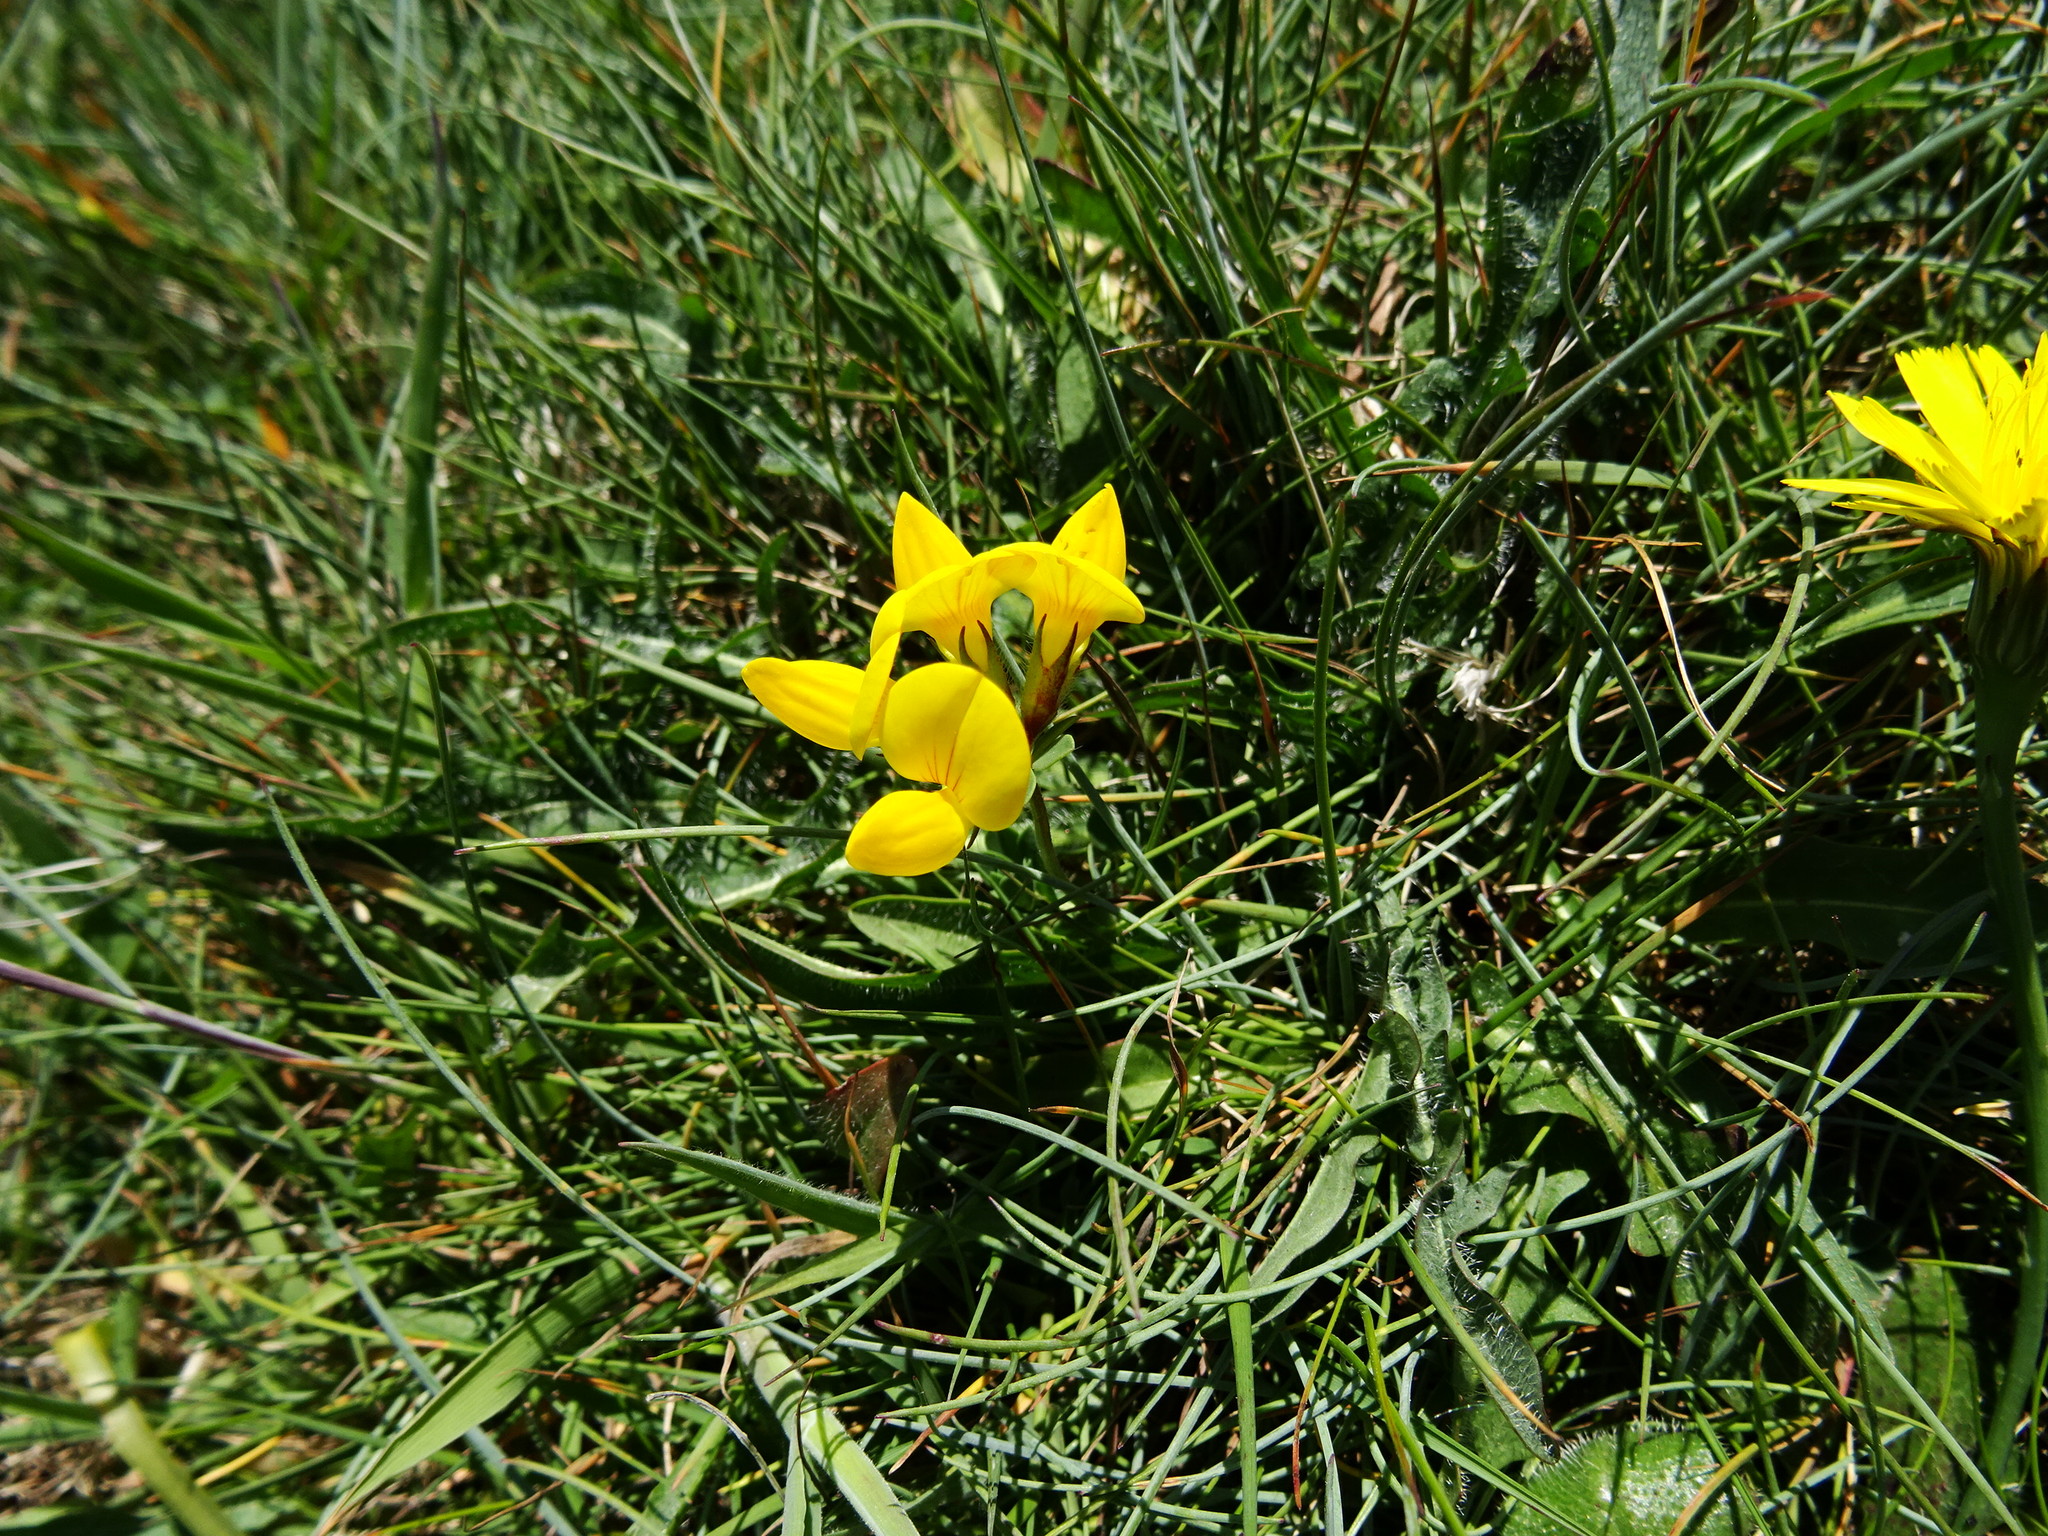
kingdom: Plantae
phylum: Tracheophyta
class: Magnoliopsida
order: Fabales
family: Fabaceae
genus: Lotus
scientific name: Lotus corniculatus
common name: Common bird's-foot-trefoil
